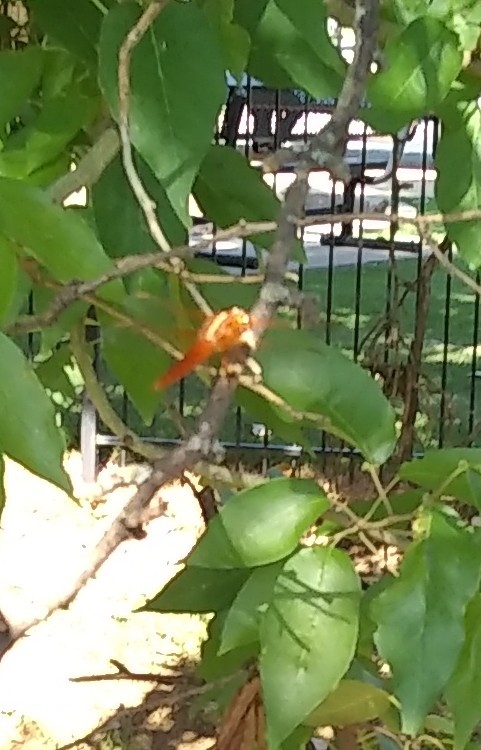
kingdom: Animalia
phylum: Arthropoda
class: Insecta
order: Odonata
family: Libellulidae
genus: Libellula
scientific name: Libellula croceipennis
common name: Neon skimmer
